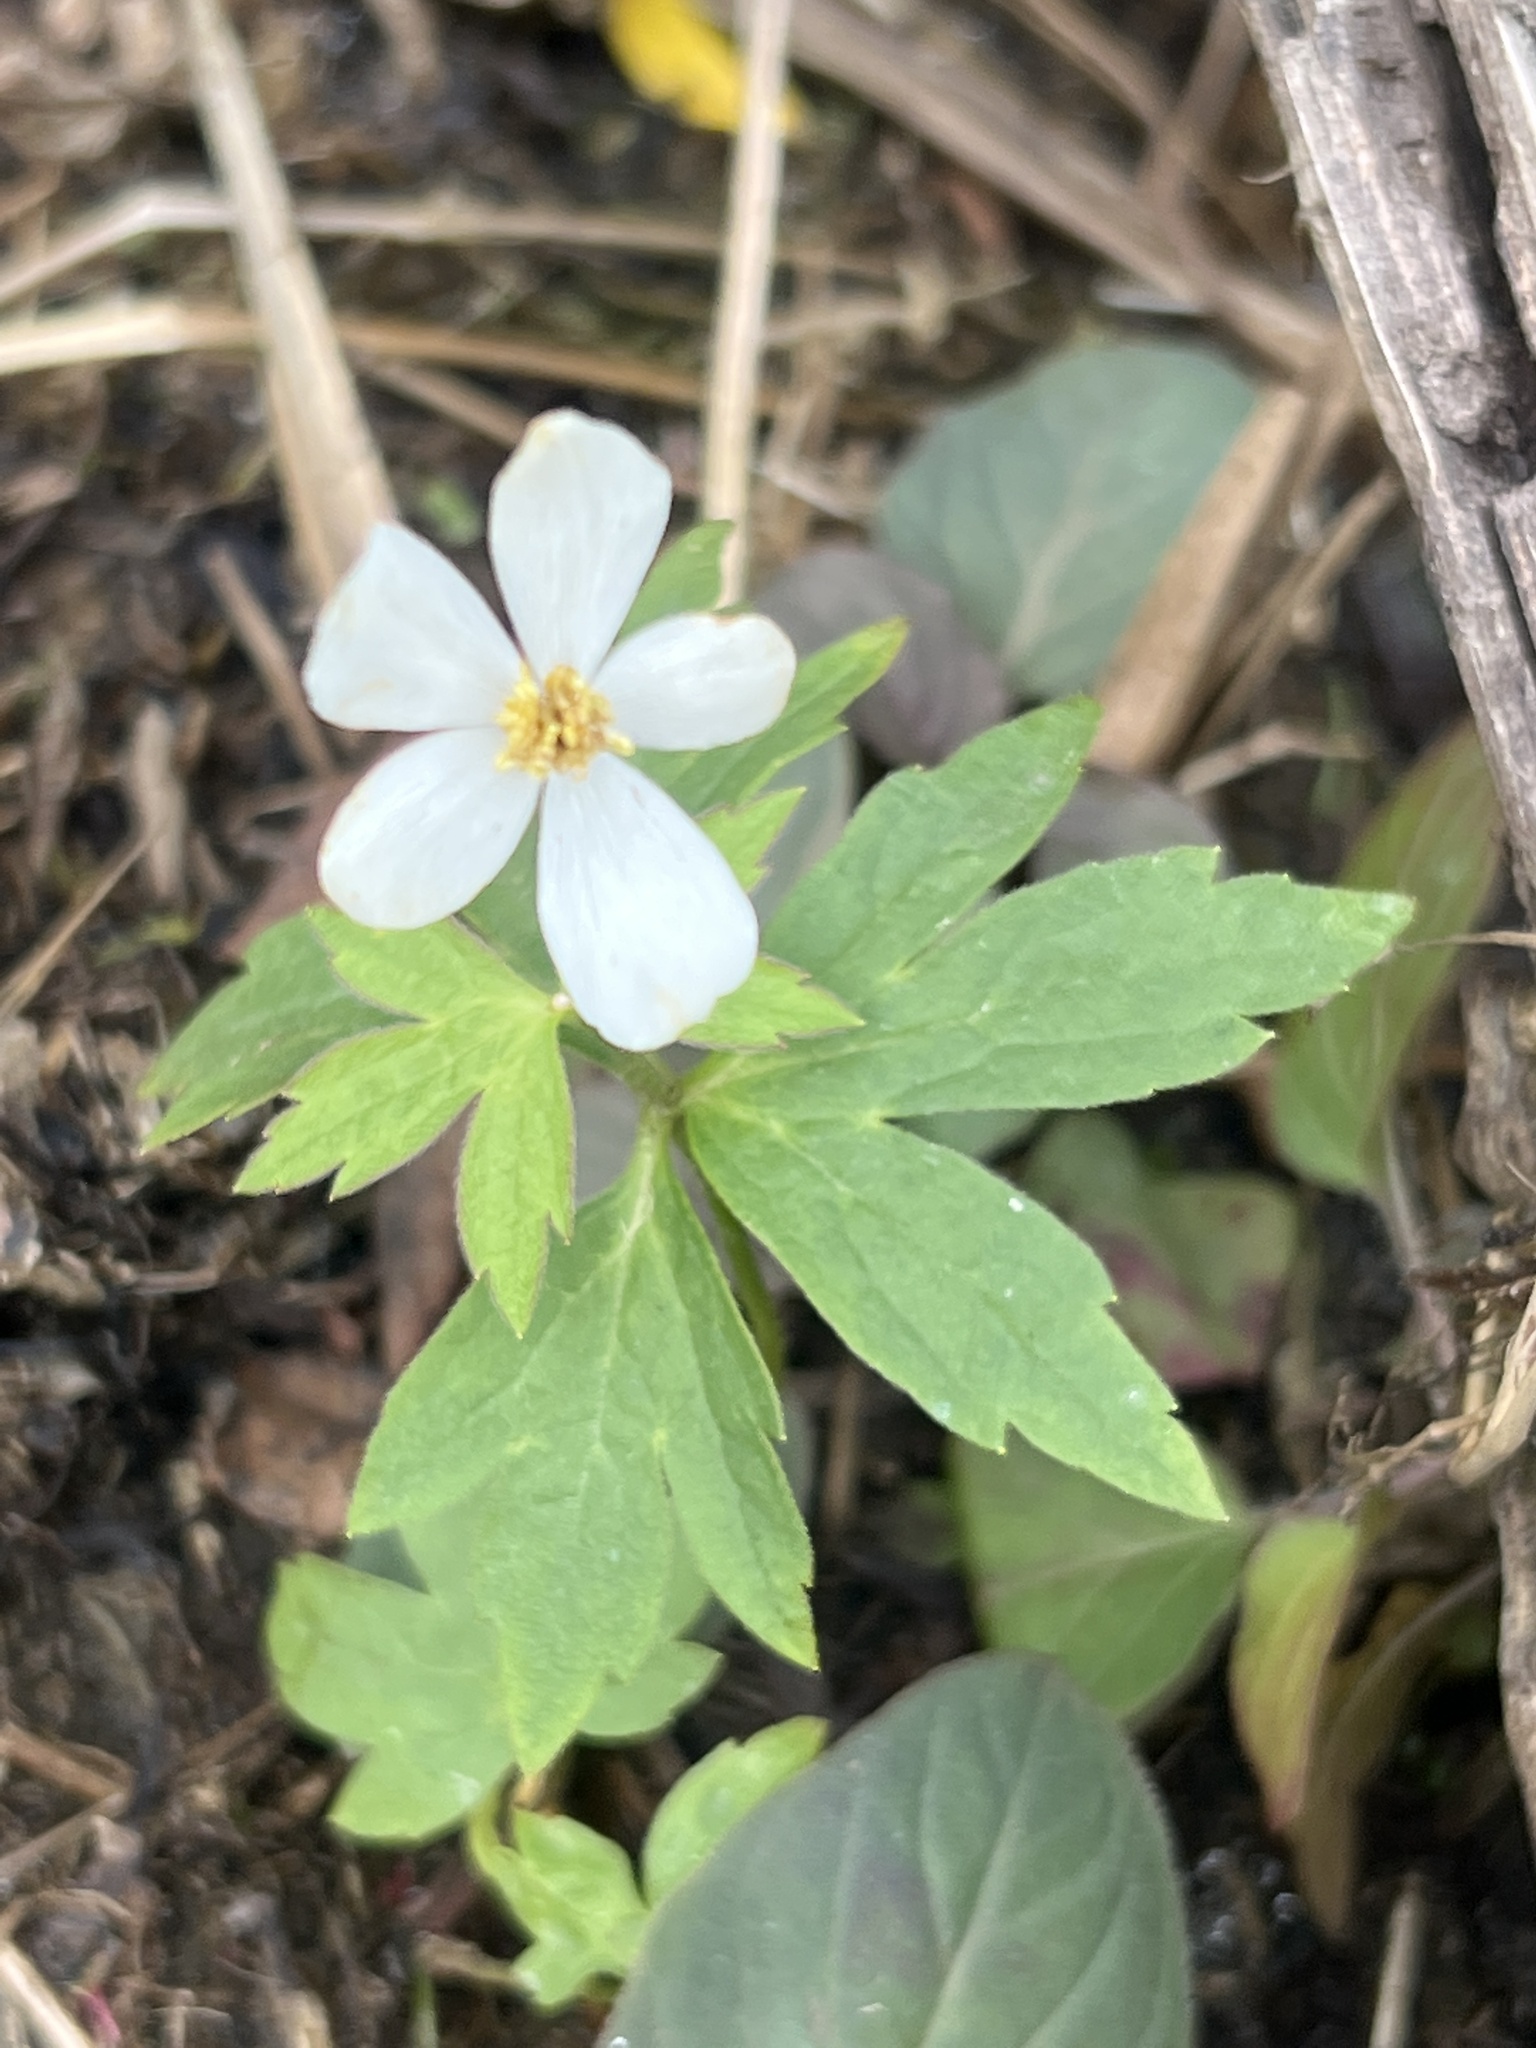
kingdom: Plantae
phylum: Tracheophyta
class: Magnoliopsida
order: Ranunculales
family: Ranunculaceae
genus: Anemonastrum
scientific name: Anemonastrum canadense
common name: Canada anemone
